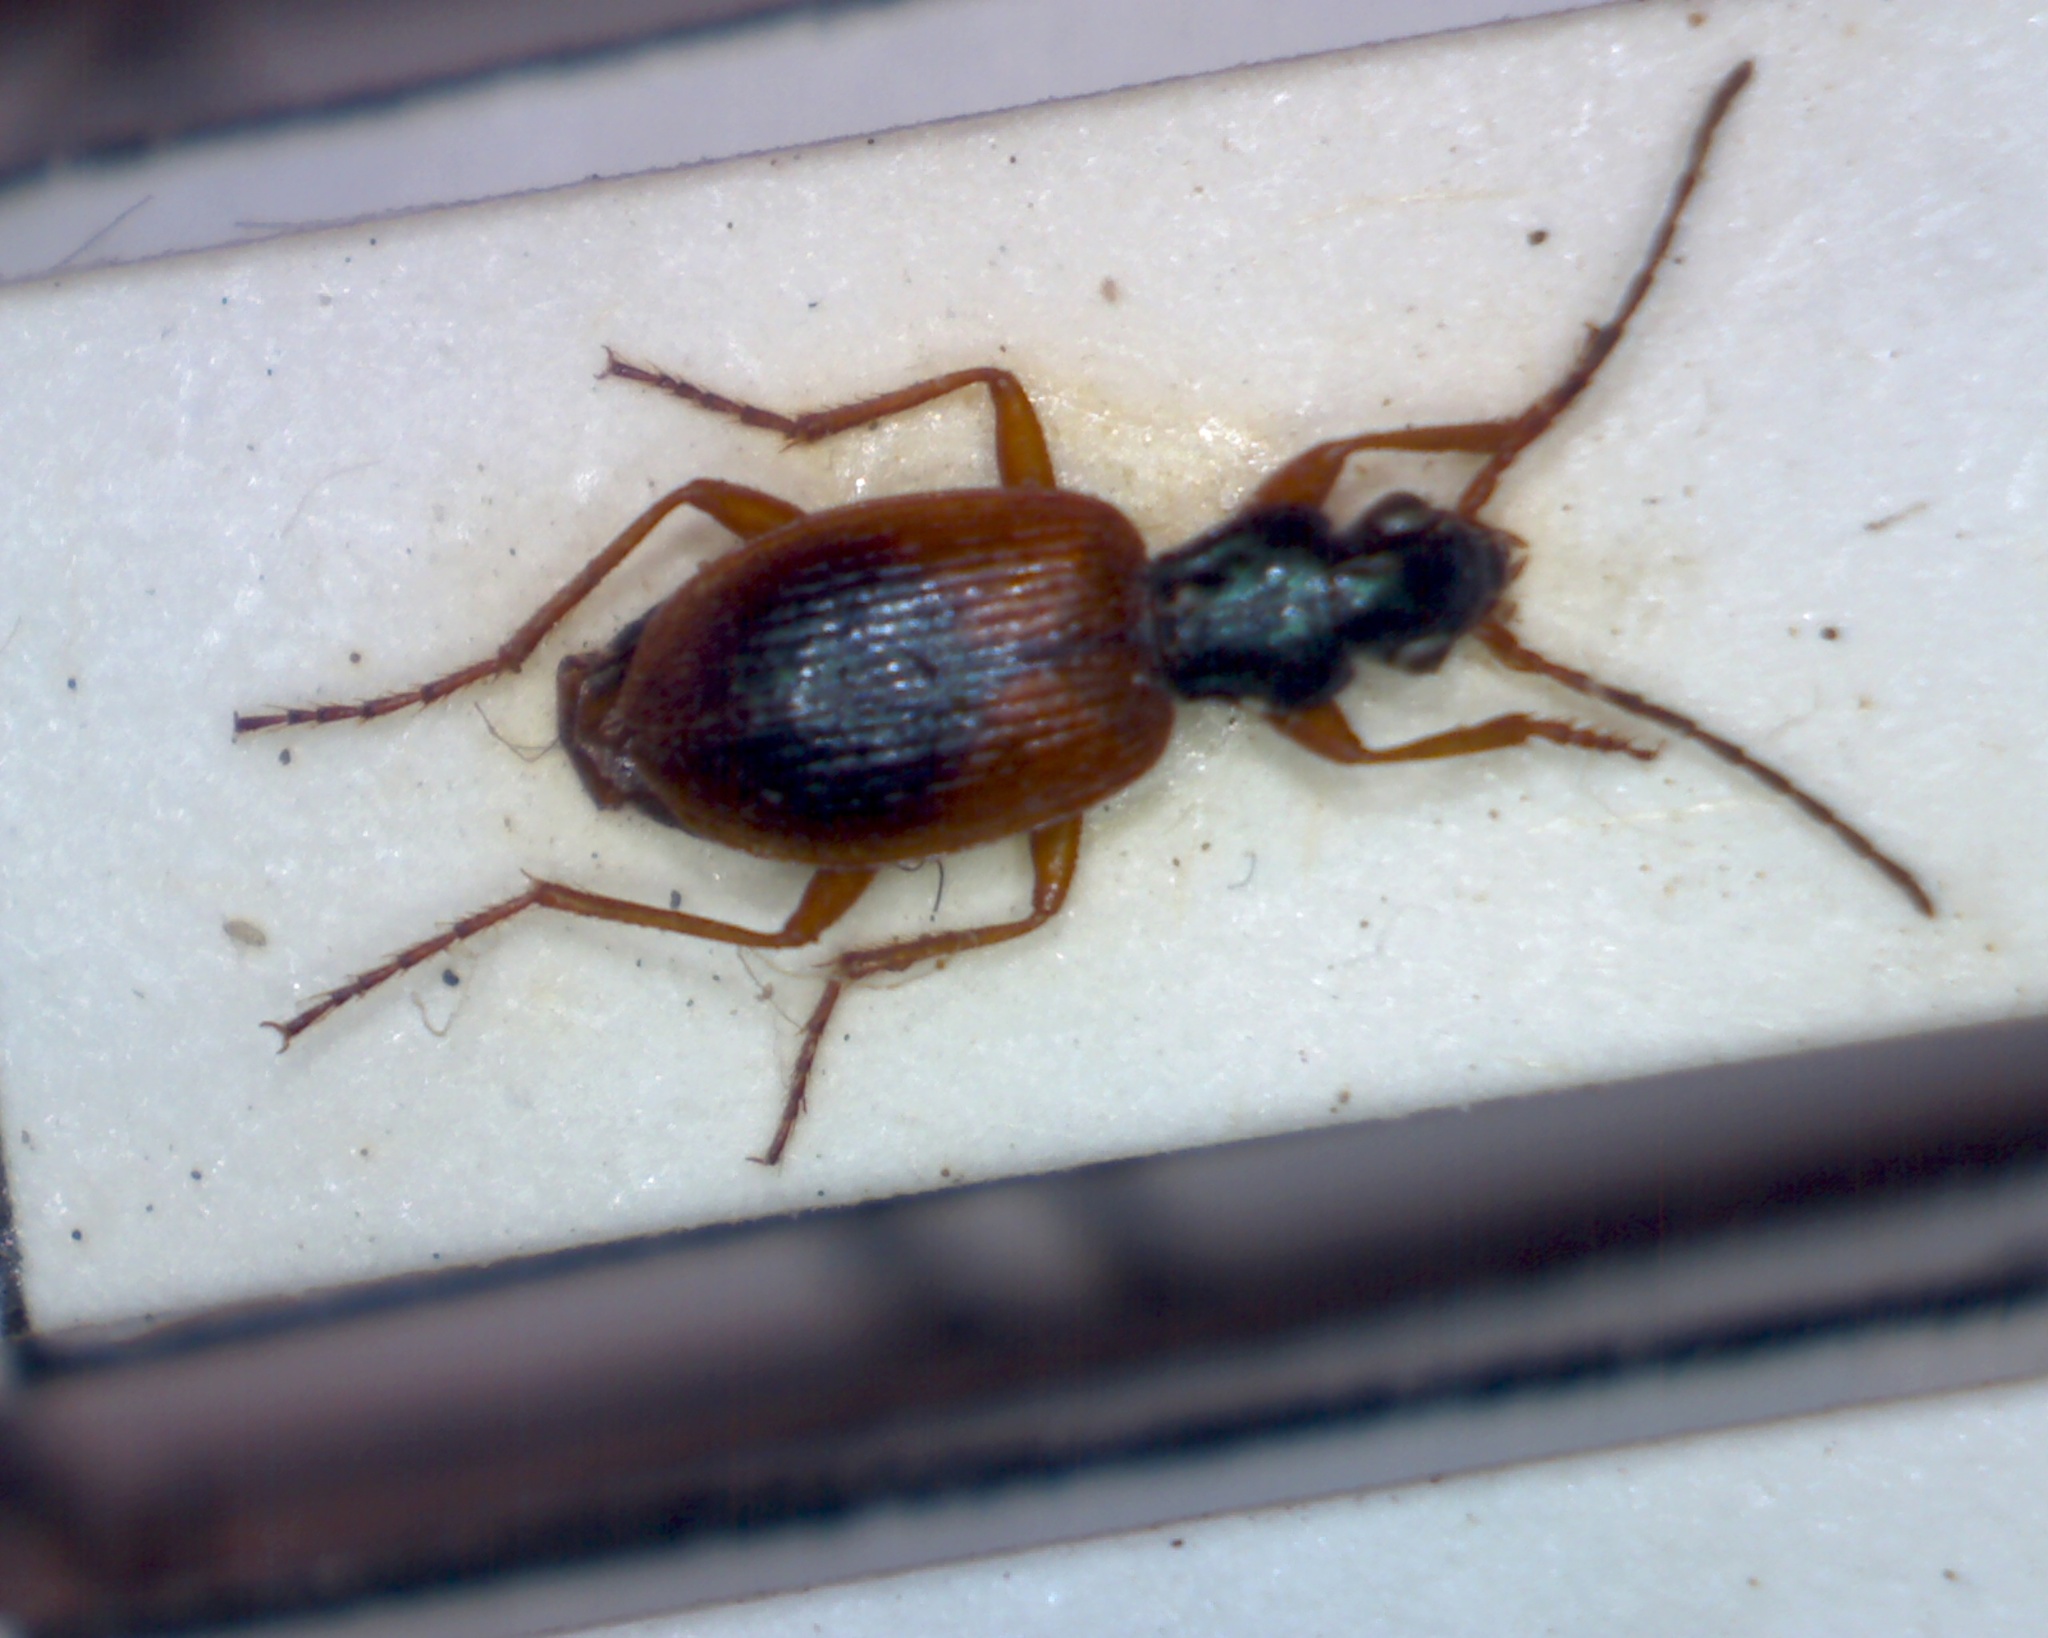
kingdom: Animalia
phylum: Arthropoda
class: Insecta
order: Coleoptera
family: Carabidae
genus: Anchomenus
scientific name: Anchomenus dorsalis
